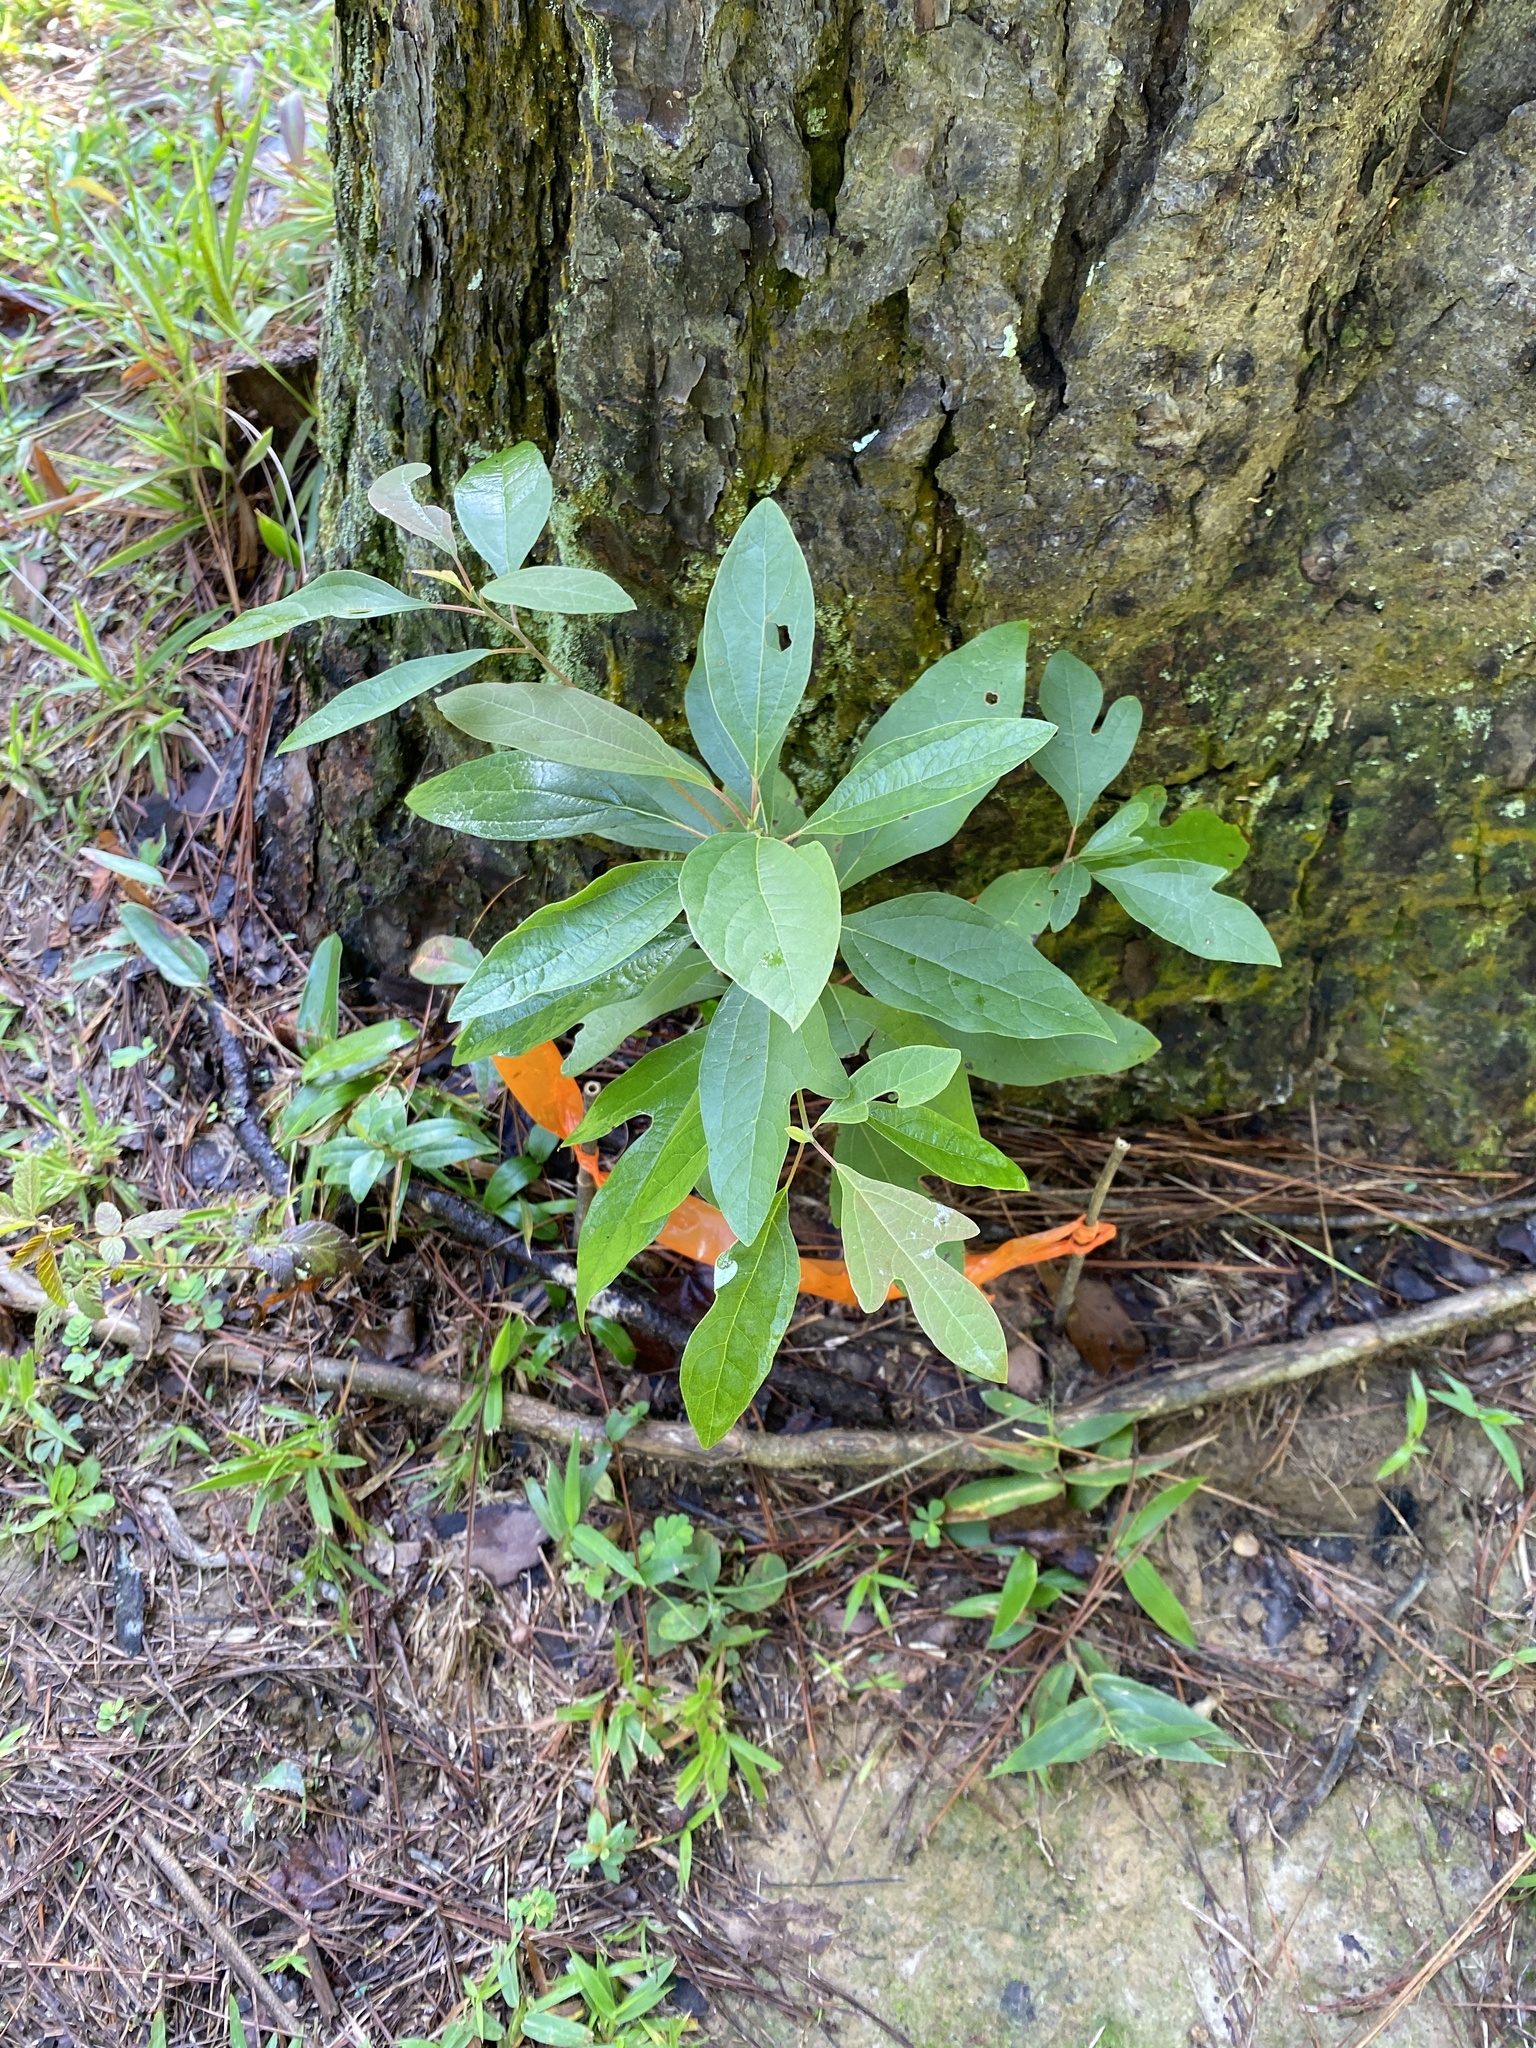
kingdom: Plantae
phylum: Tracheophyta
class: Magnoliopsida
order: Laurales
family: Lauraceae
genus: Sassafras
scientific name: Sassafras albidum
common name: Sassafras
